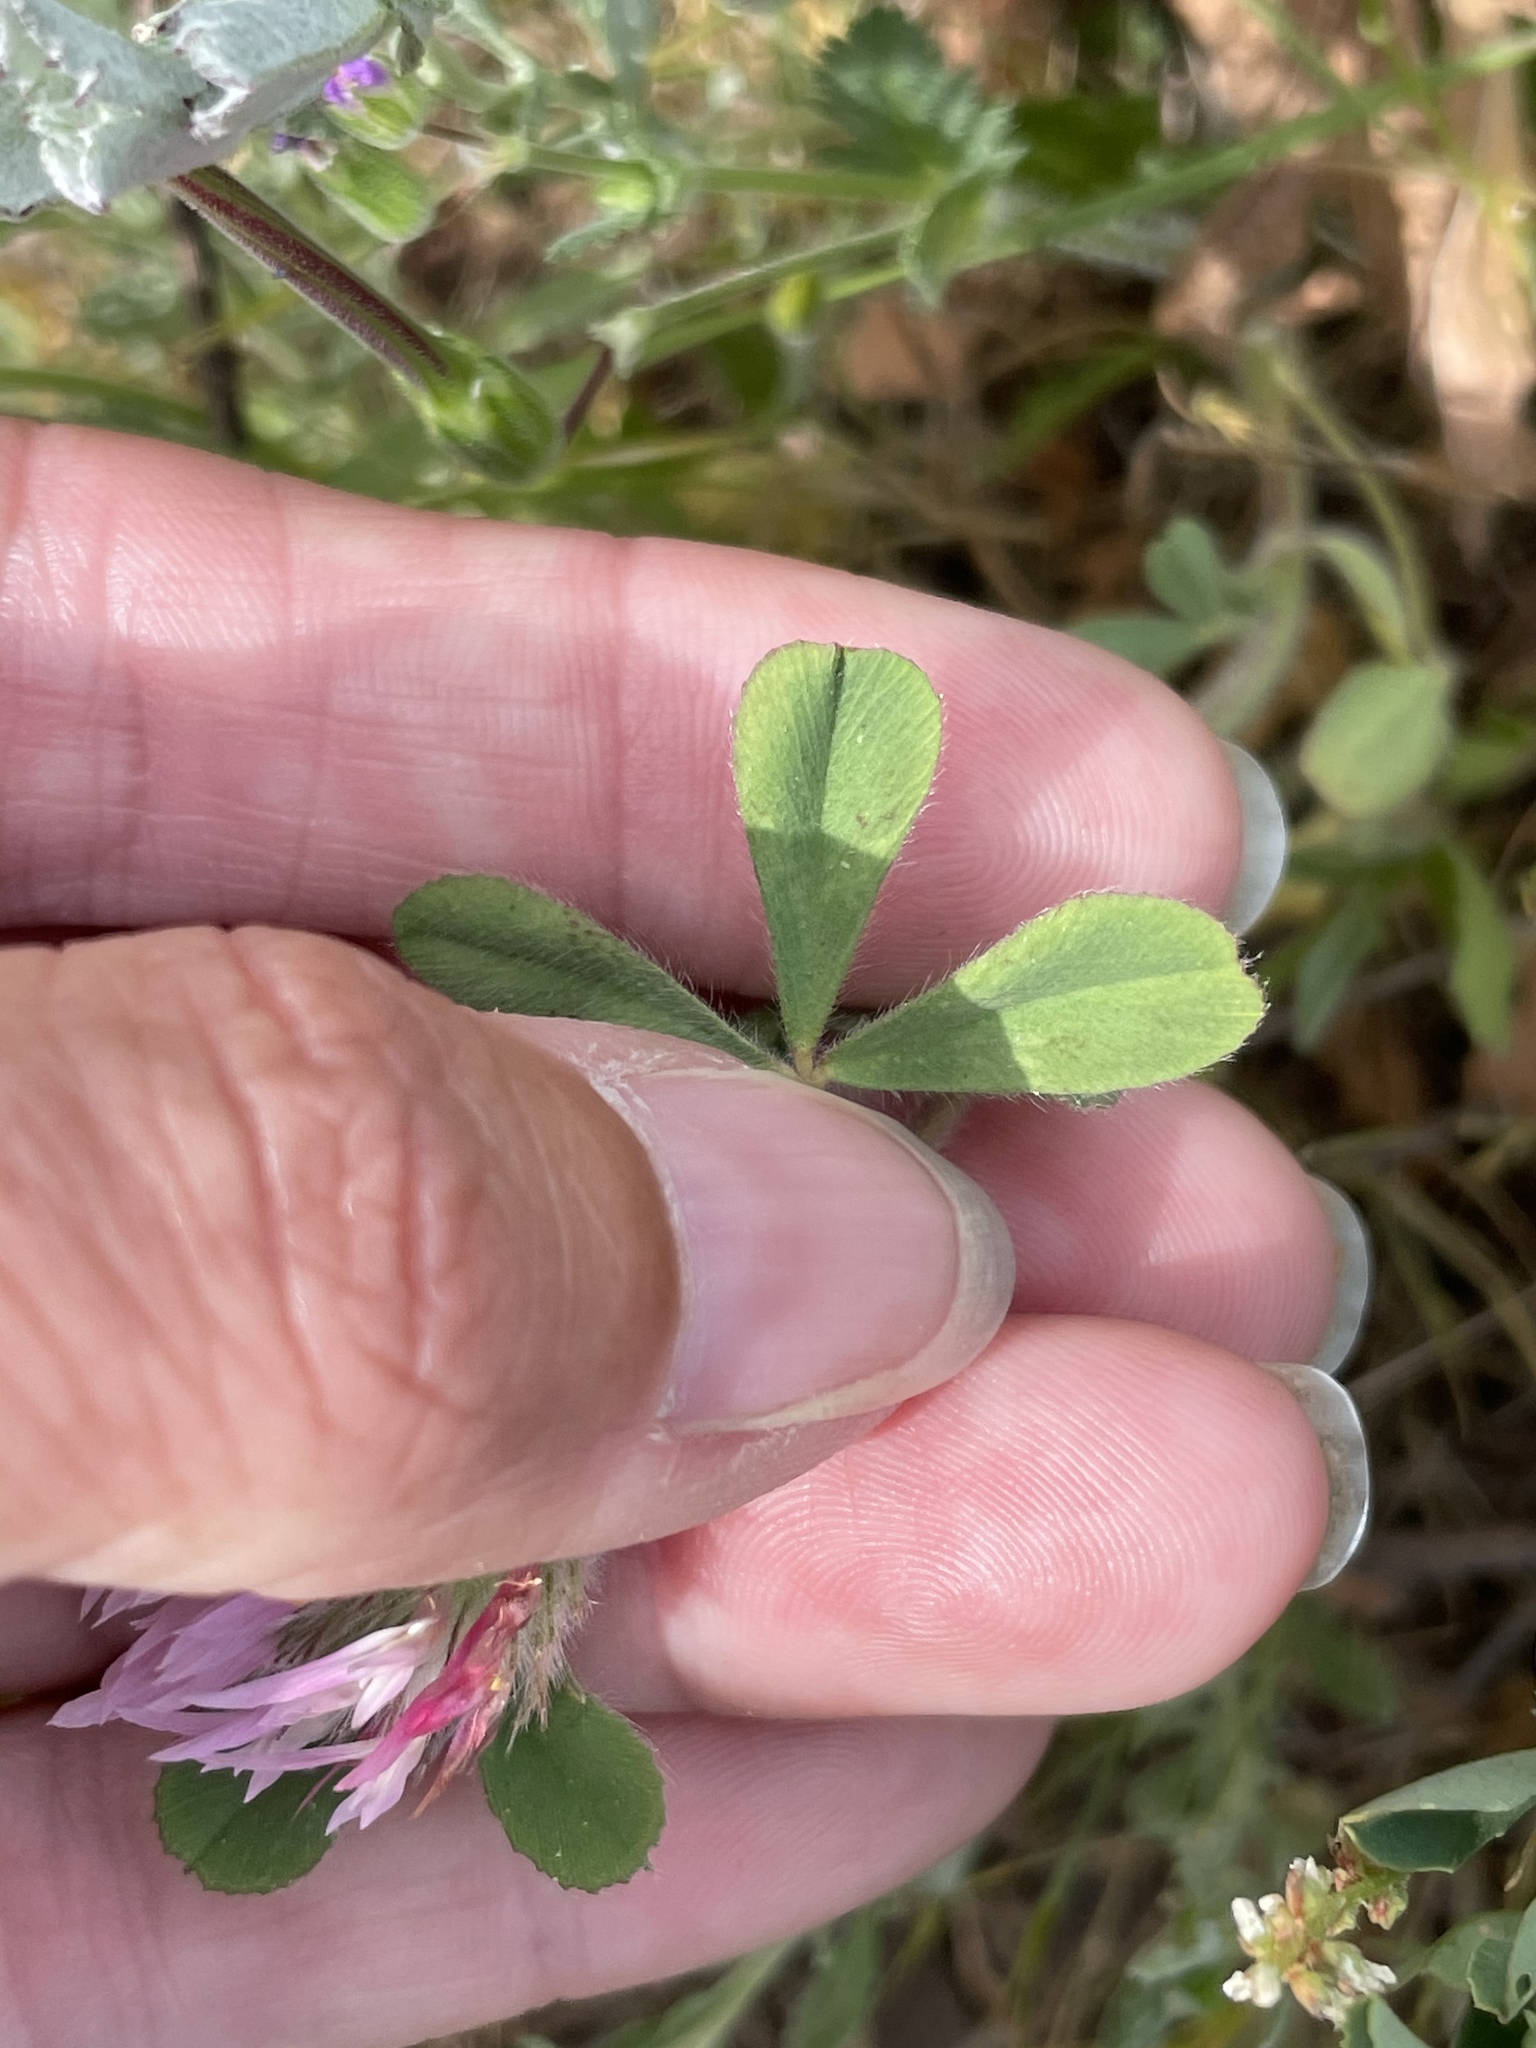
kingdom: Plantae
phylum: Tracheophyta
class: Magnoliopsida
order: Fabales
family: Fabaceae
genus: Trifolium
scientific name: Trifolium hirtum
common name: Rose clover
